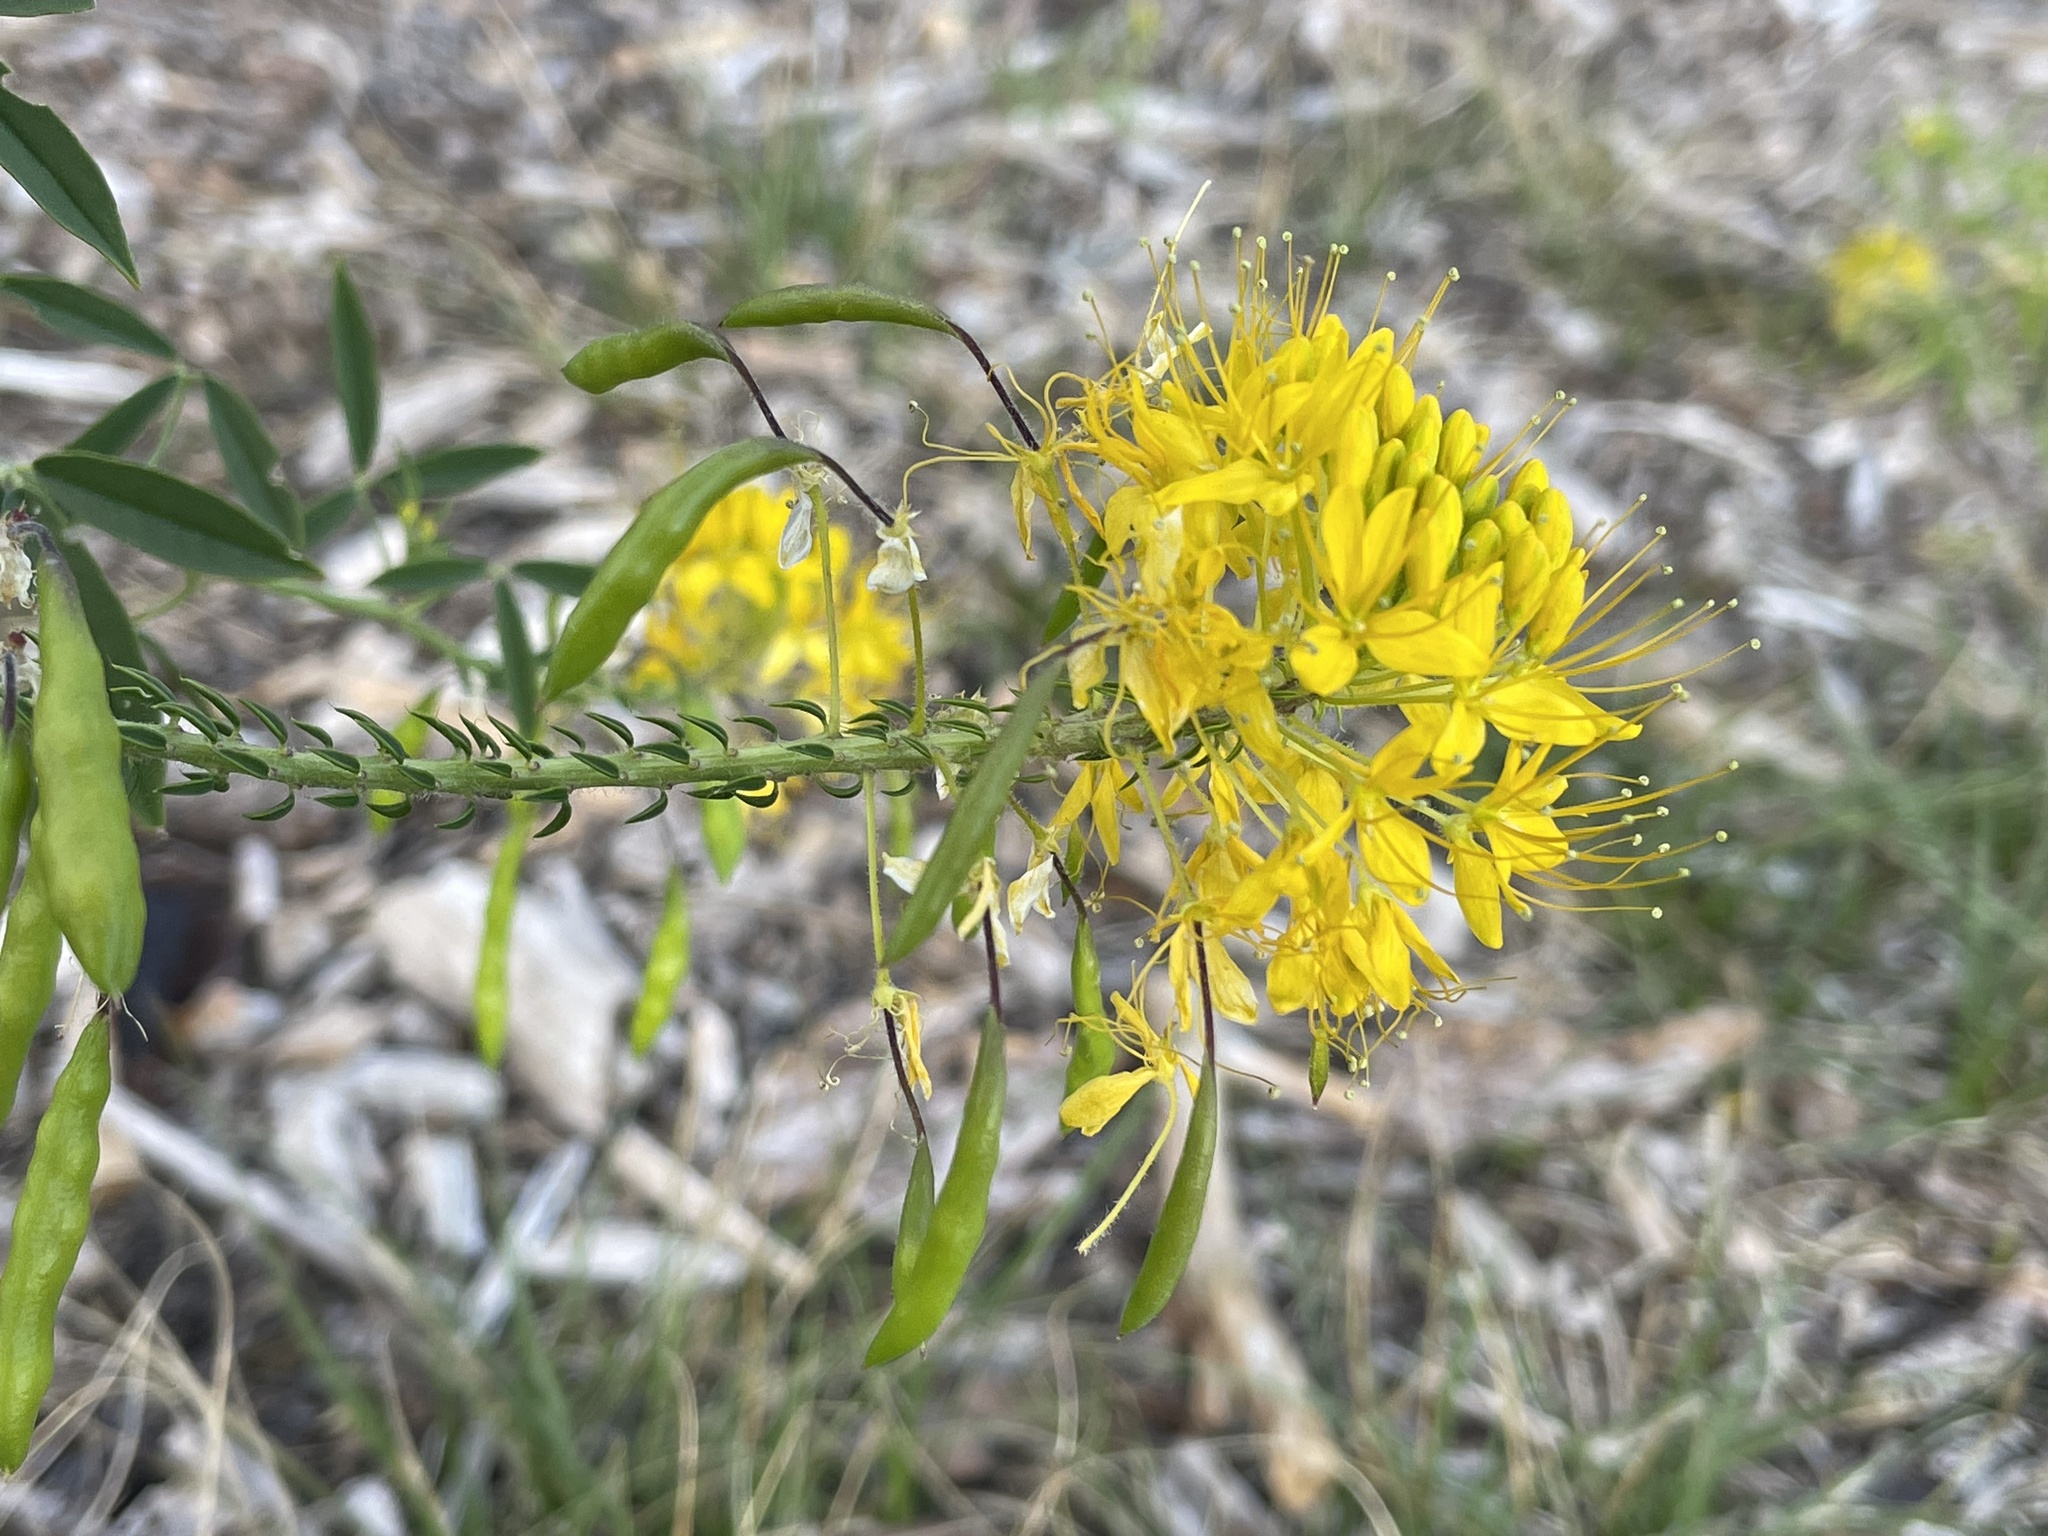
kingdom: Plantae
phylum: Tracheophyta
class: Magnoliopsida
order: Brassicales
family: Cleomaceae
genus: Cleomella
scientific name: Cleomella lutea
